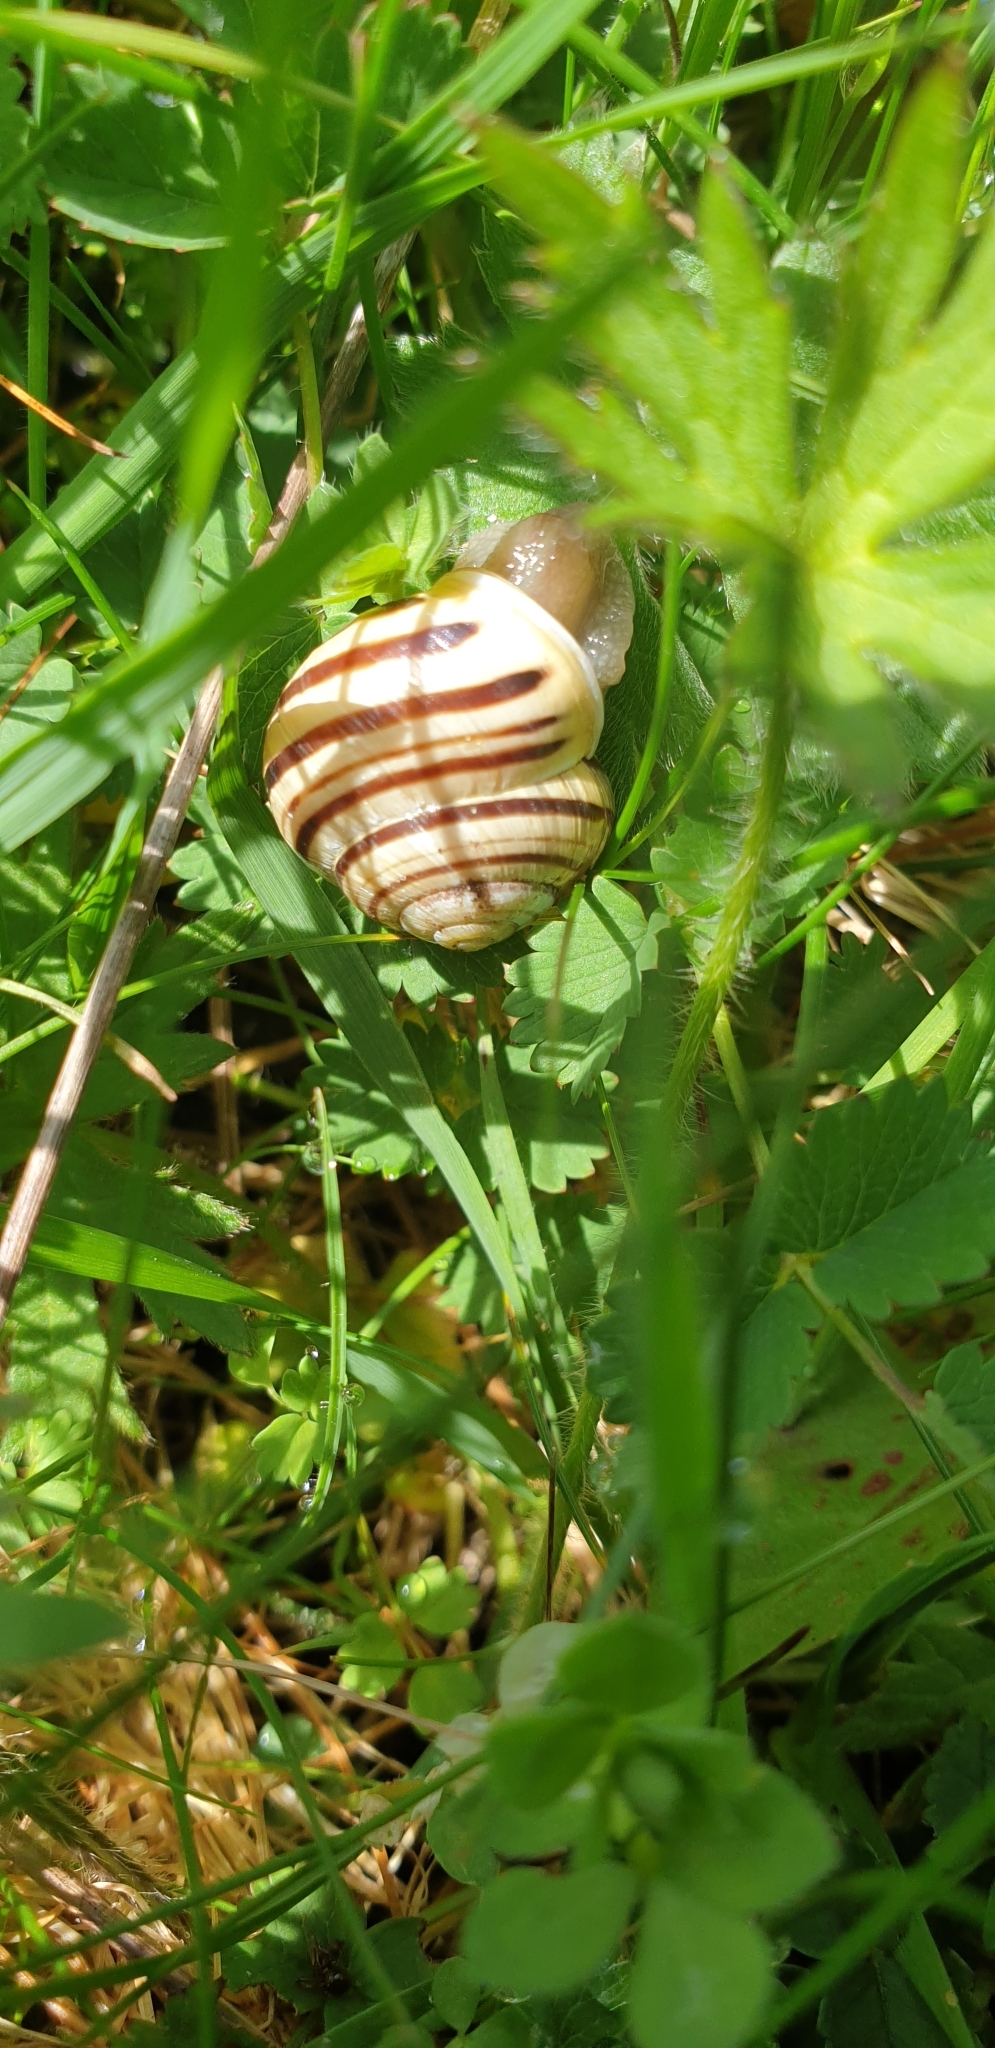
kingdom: Animalia
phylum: Mollusca
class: Gastropoda
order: Stylommatophora
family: Helicidae
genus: Cepaea
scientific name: Cepaea hortensis
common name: White-lip gardensnail
